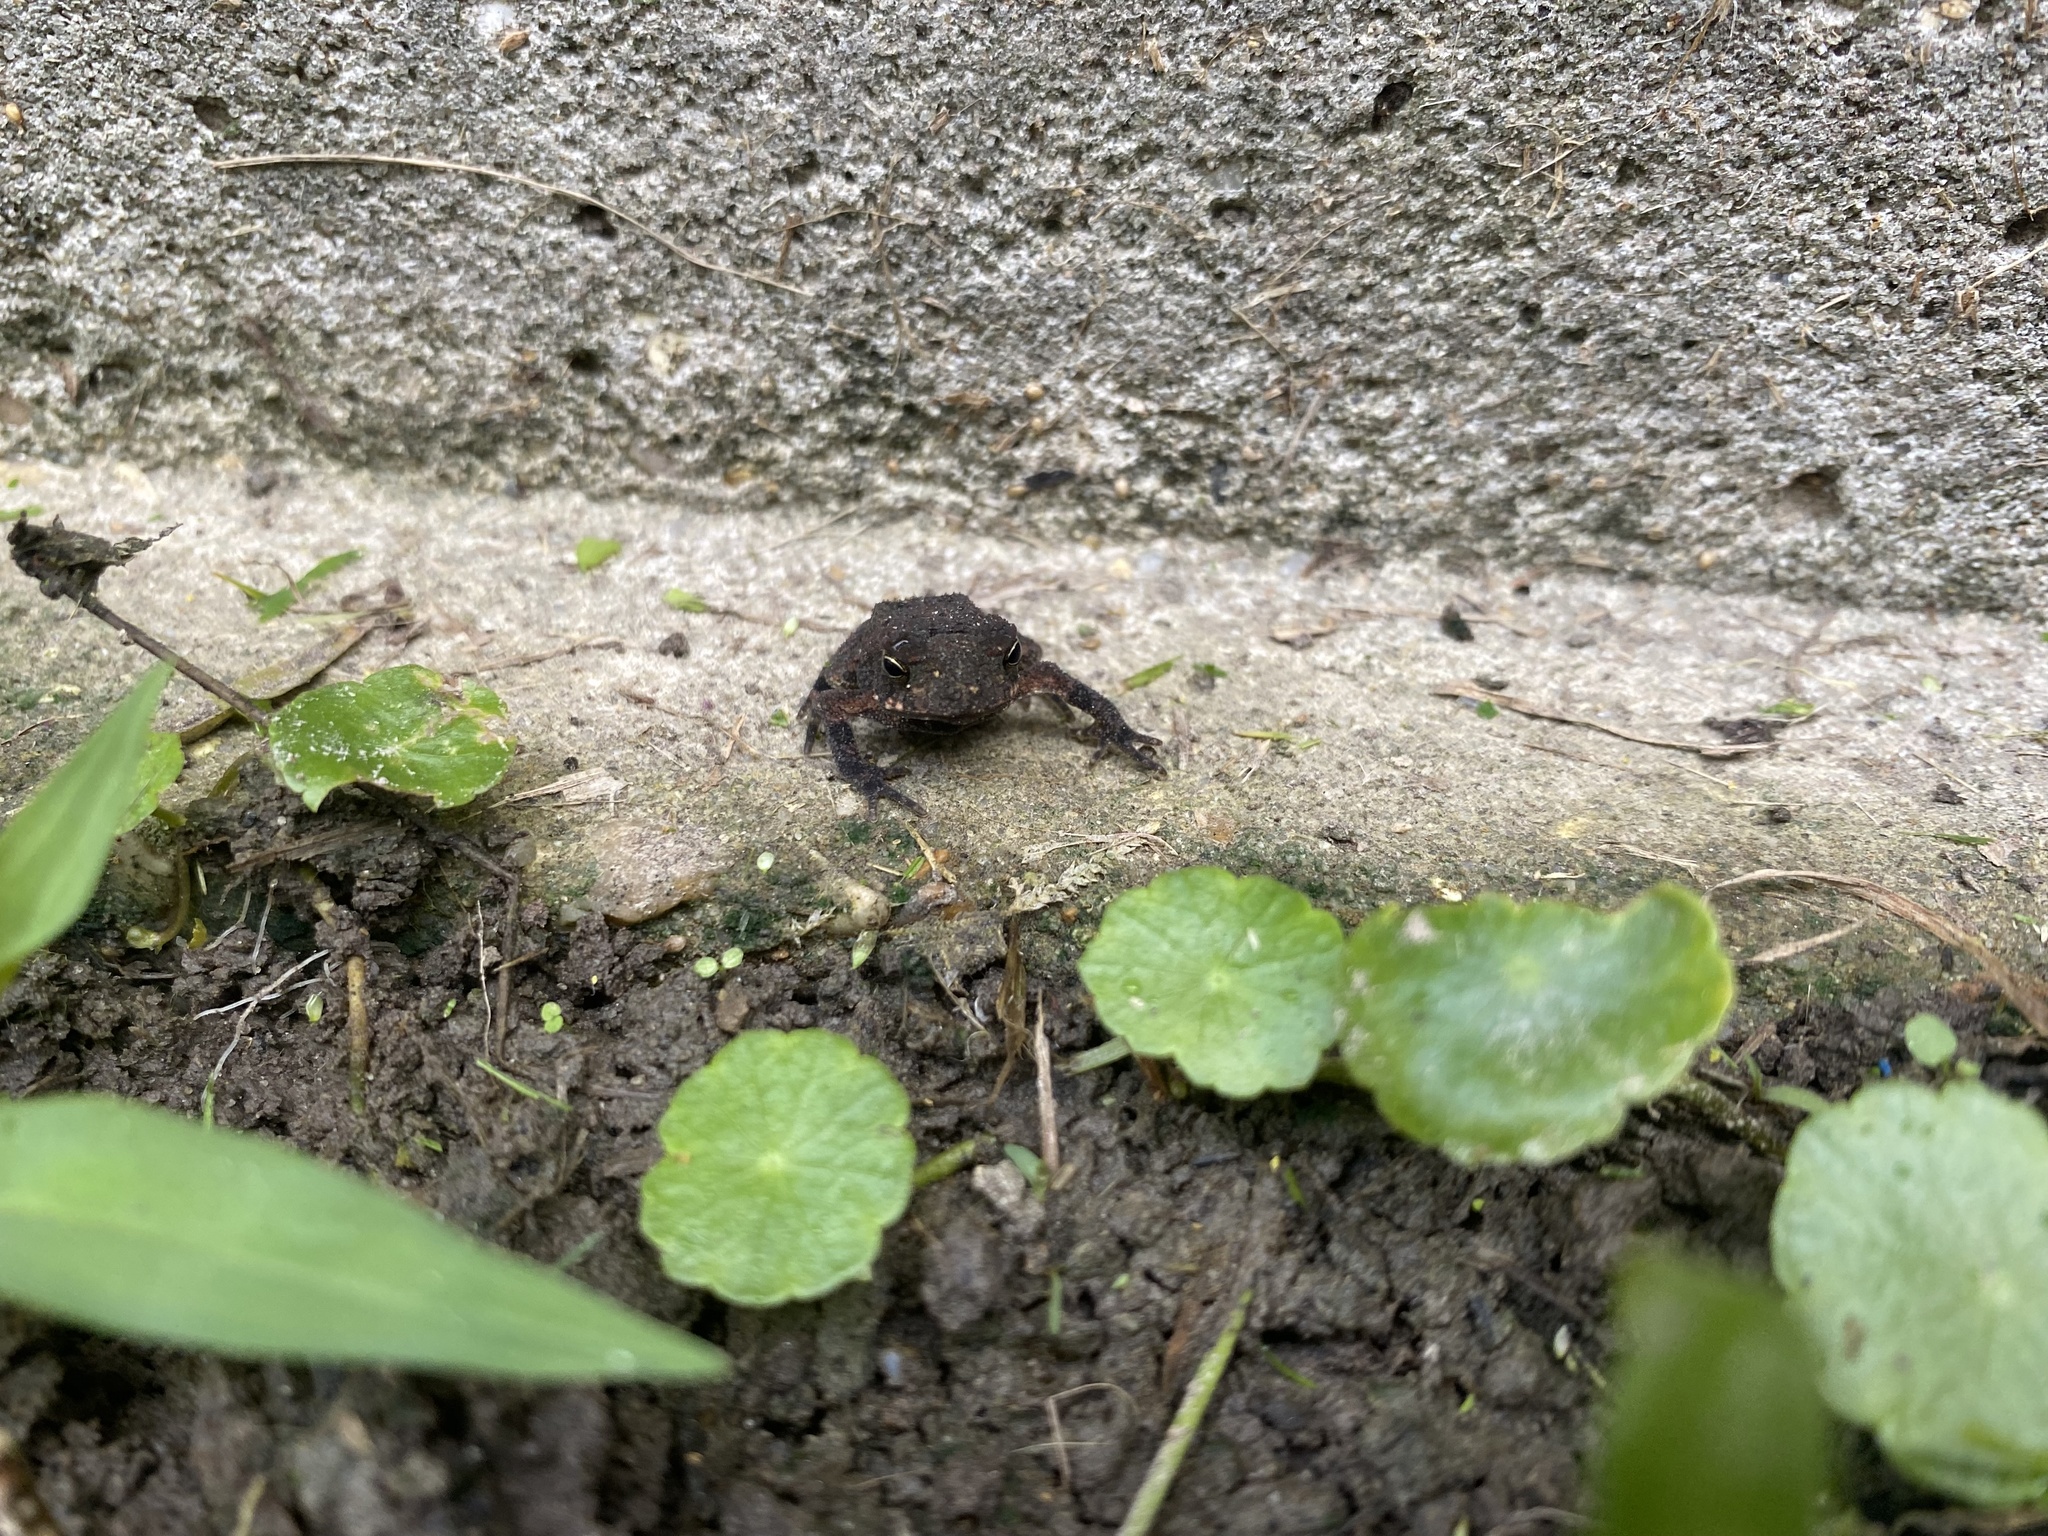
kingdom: Animalia
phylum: Chordata
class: Amphibia
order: Anura
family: Bufonidae
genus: Incilius
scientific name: Incilius nebulifer
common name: Gulf coast toad
